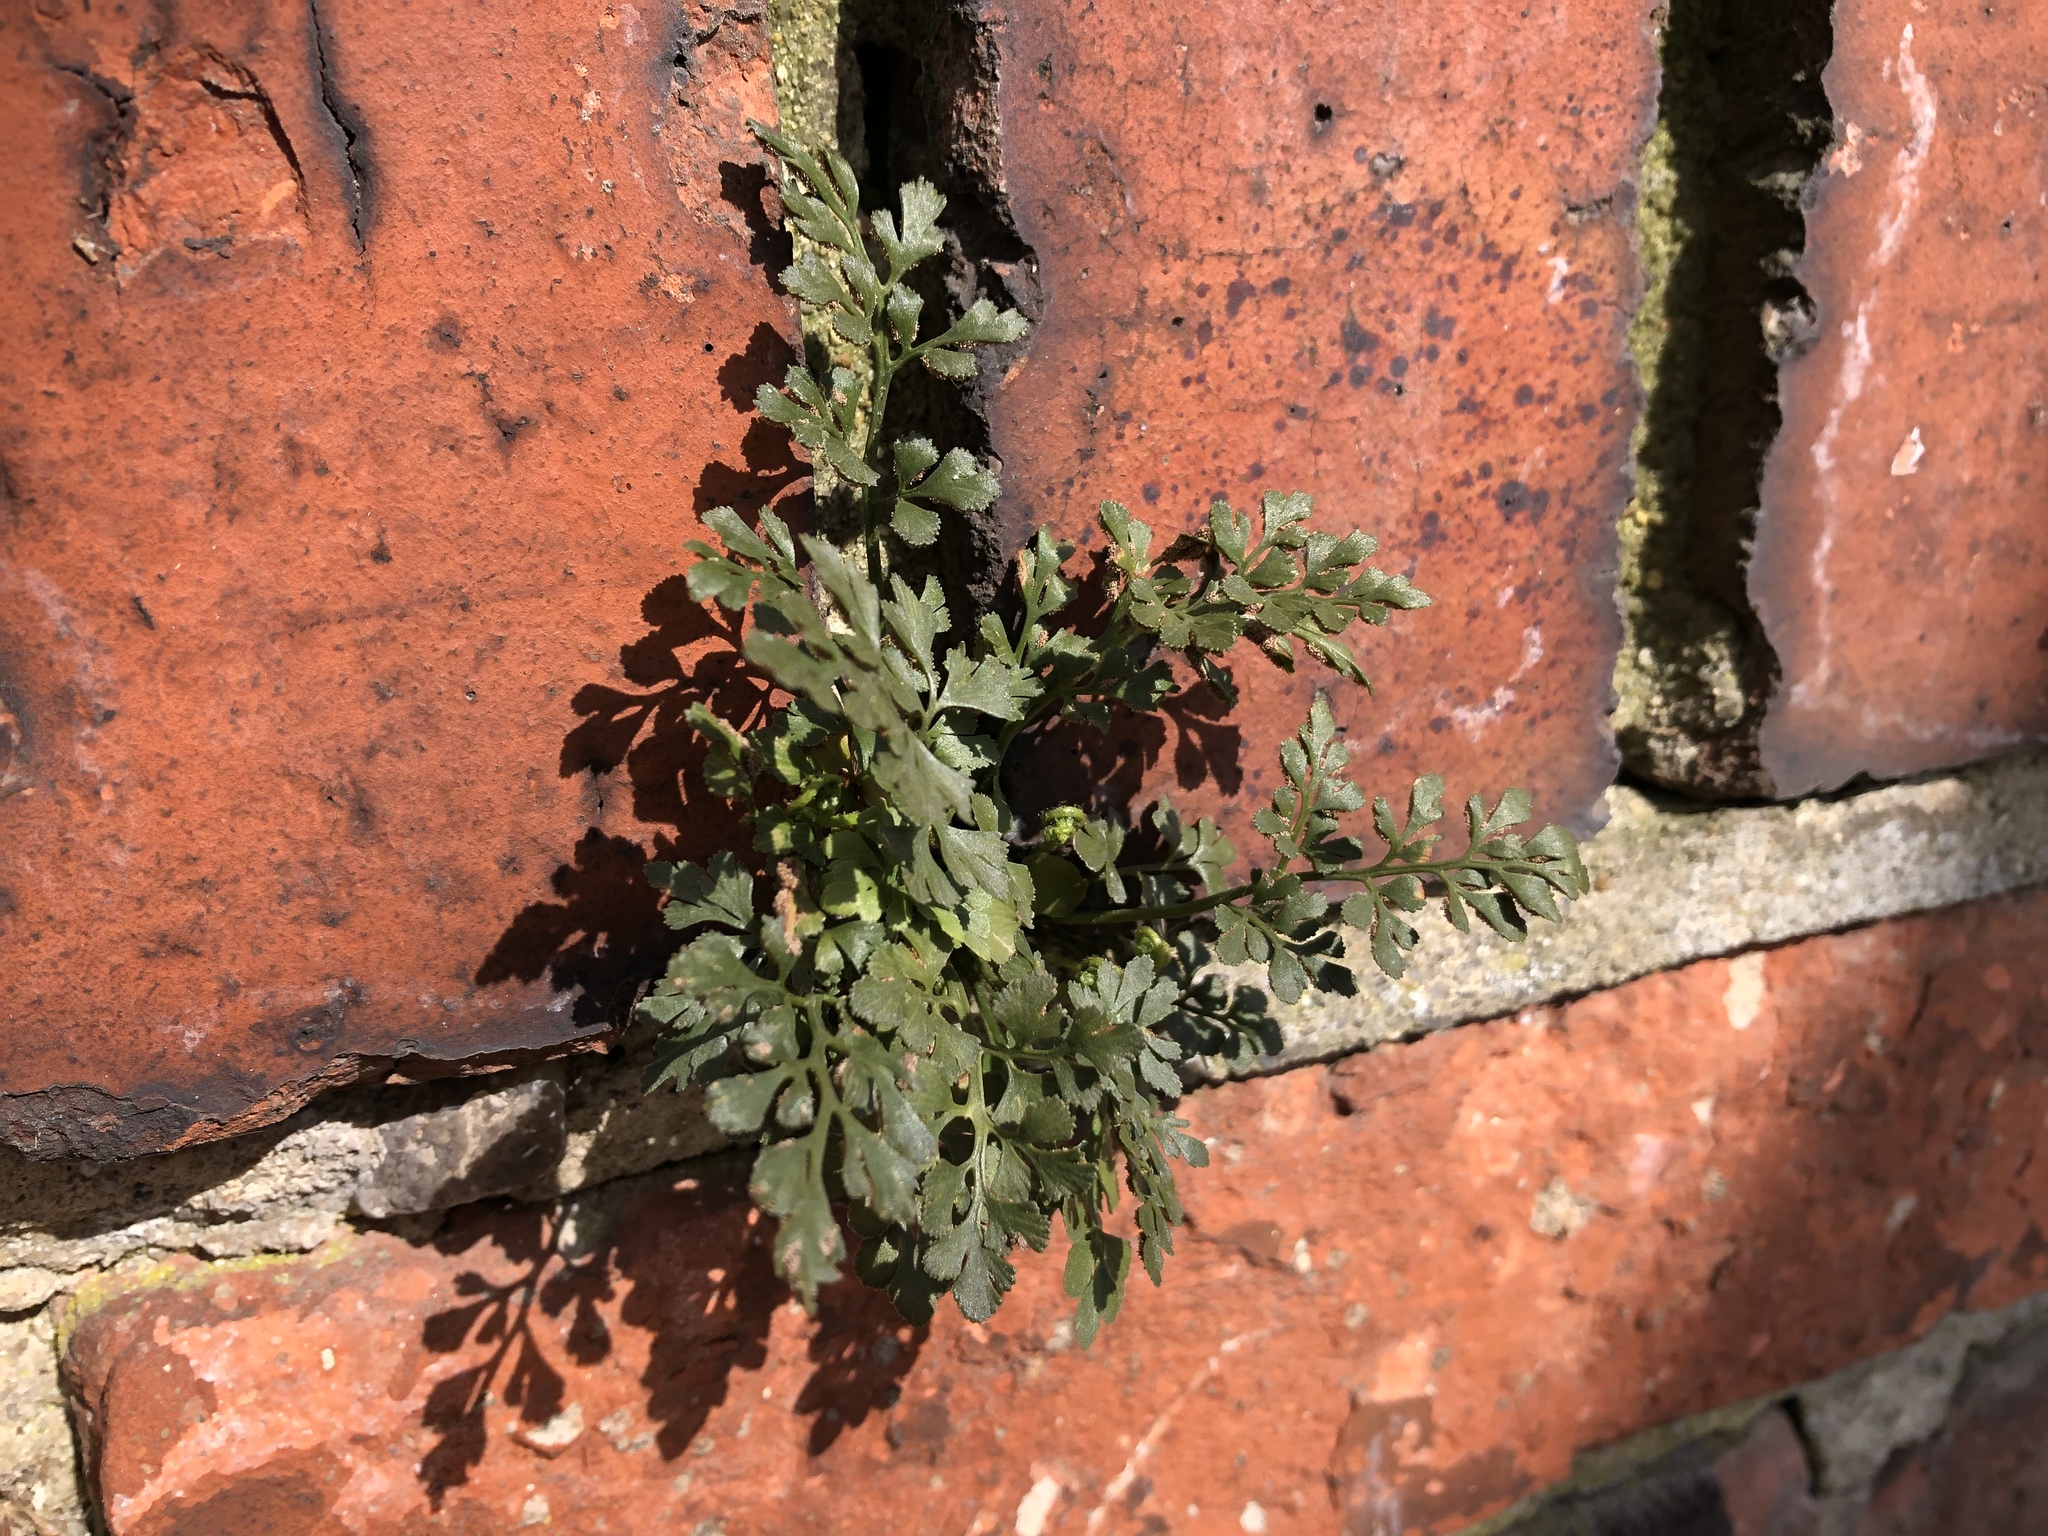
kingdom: Plantae
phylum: Tracheophyta
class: Polypodiopsida
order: Polypodiales
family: Aspleniaceae
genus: Asplenium
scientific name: Asplenium ruta-muraria
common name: Wall-rue
